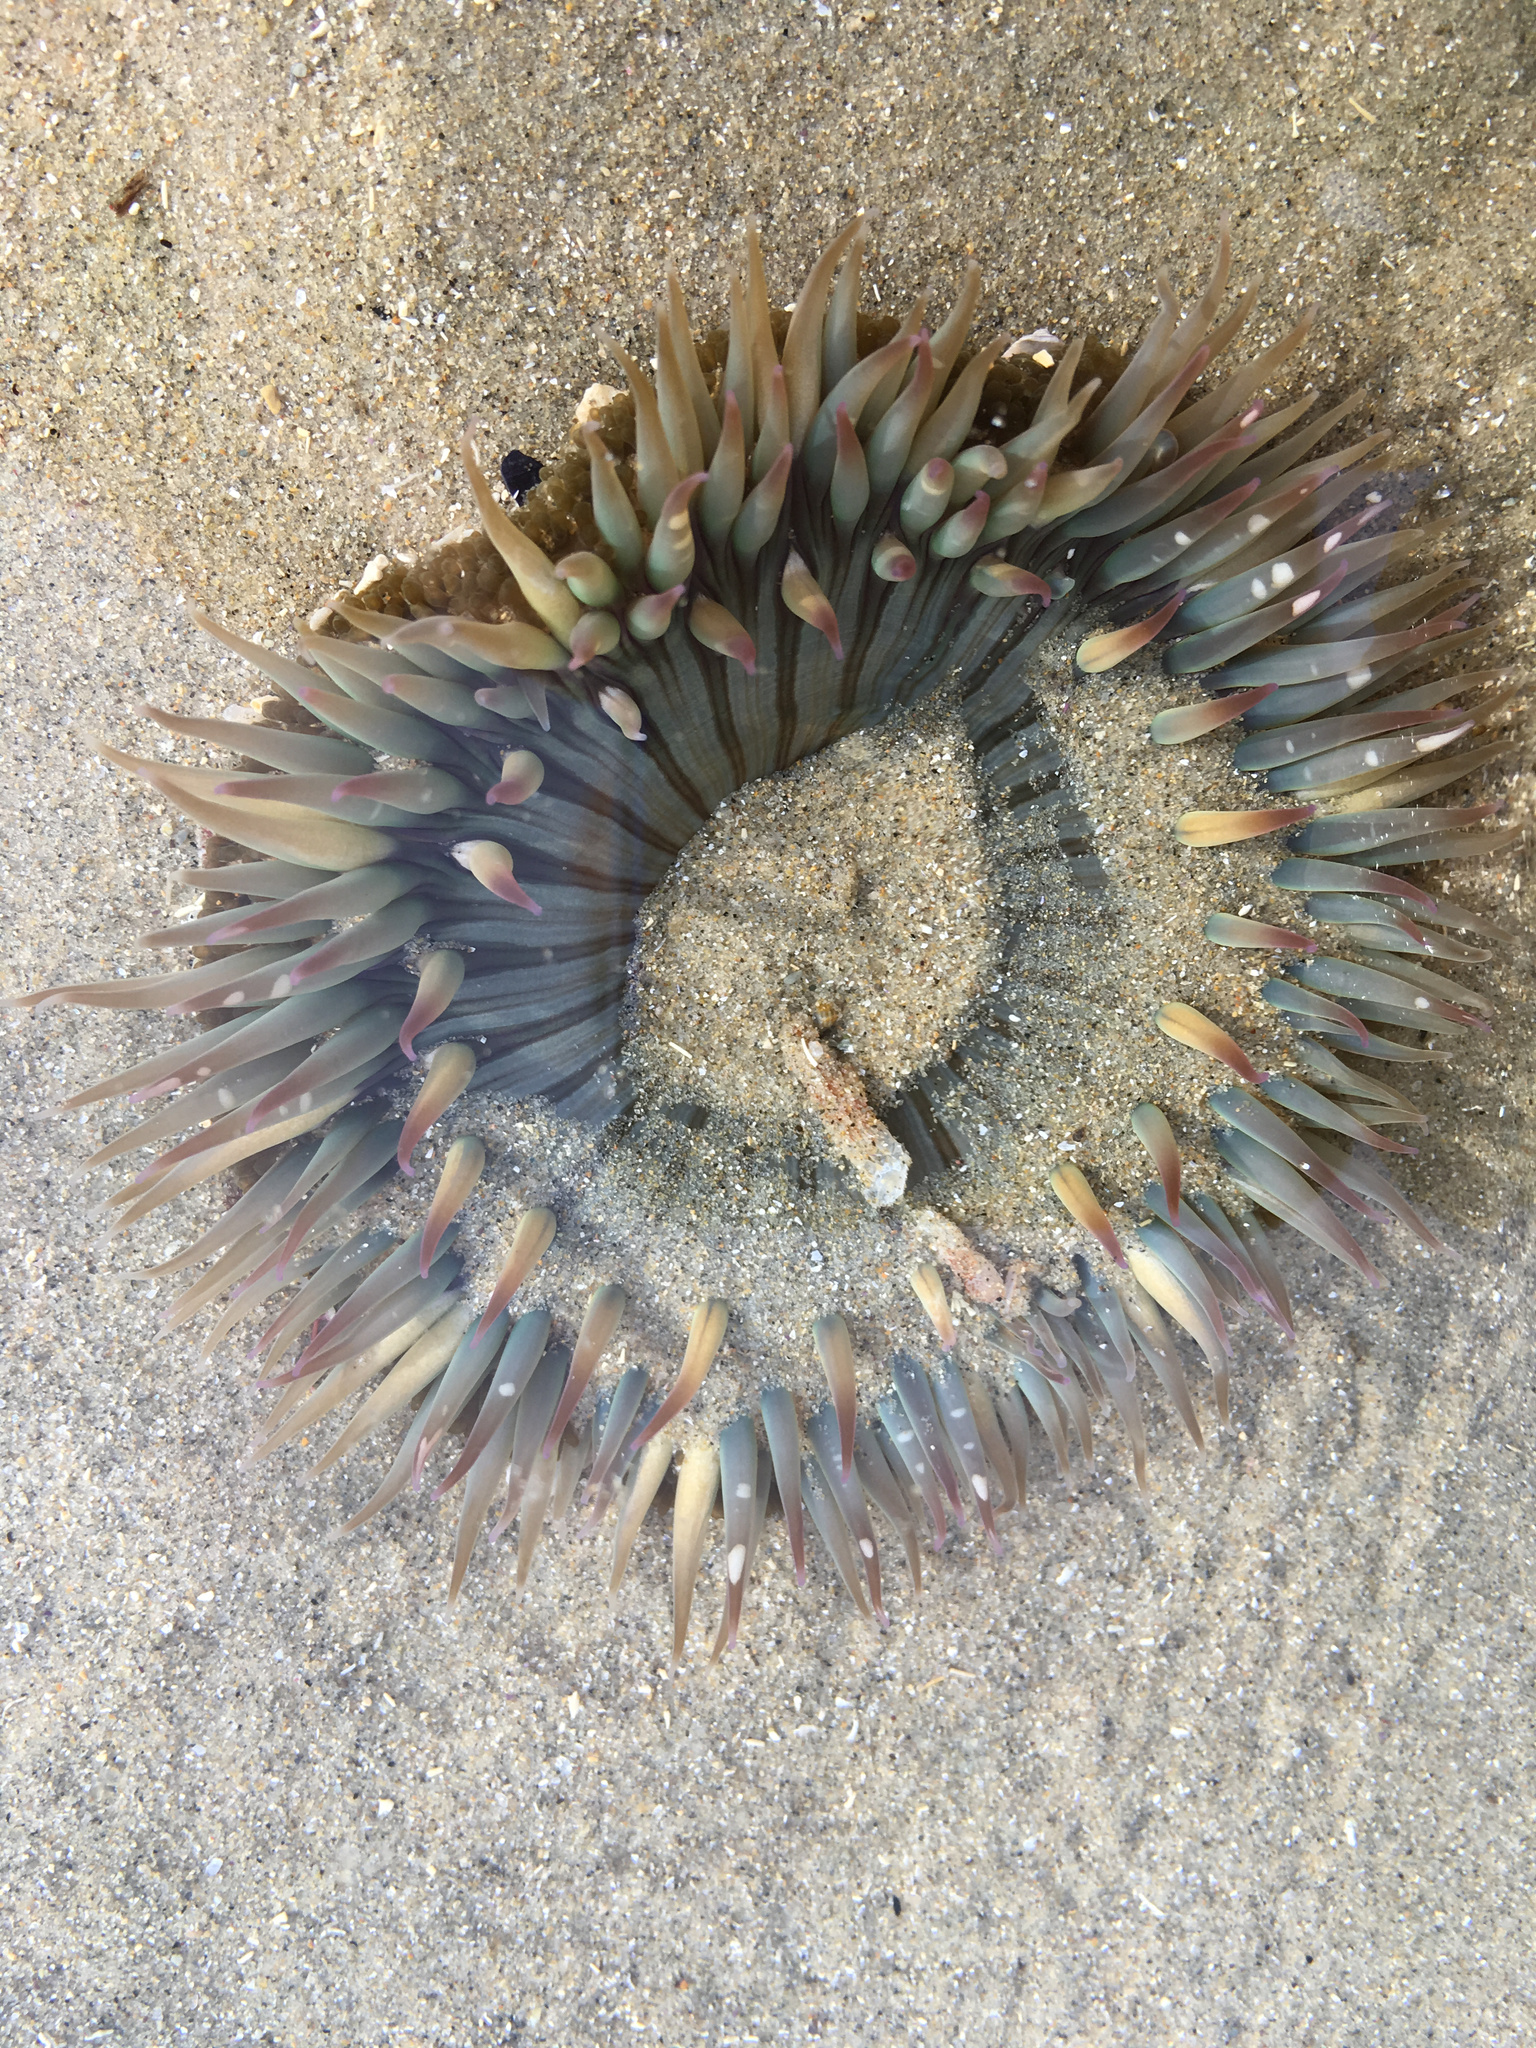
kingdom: Animalia
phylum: Cnidaria
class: Anthozoa
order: Actiniaria
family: Actiniidae
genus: Anthopleura
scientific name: Anthopleura sola
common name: Sun anemone
